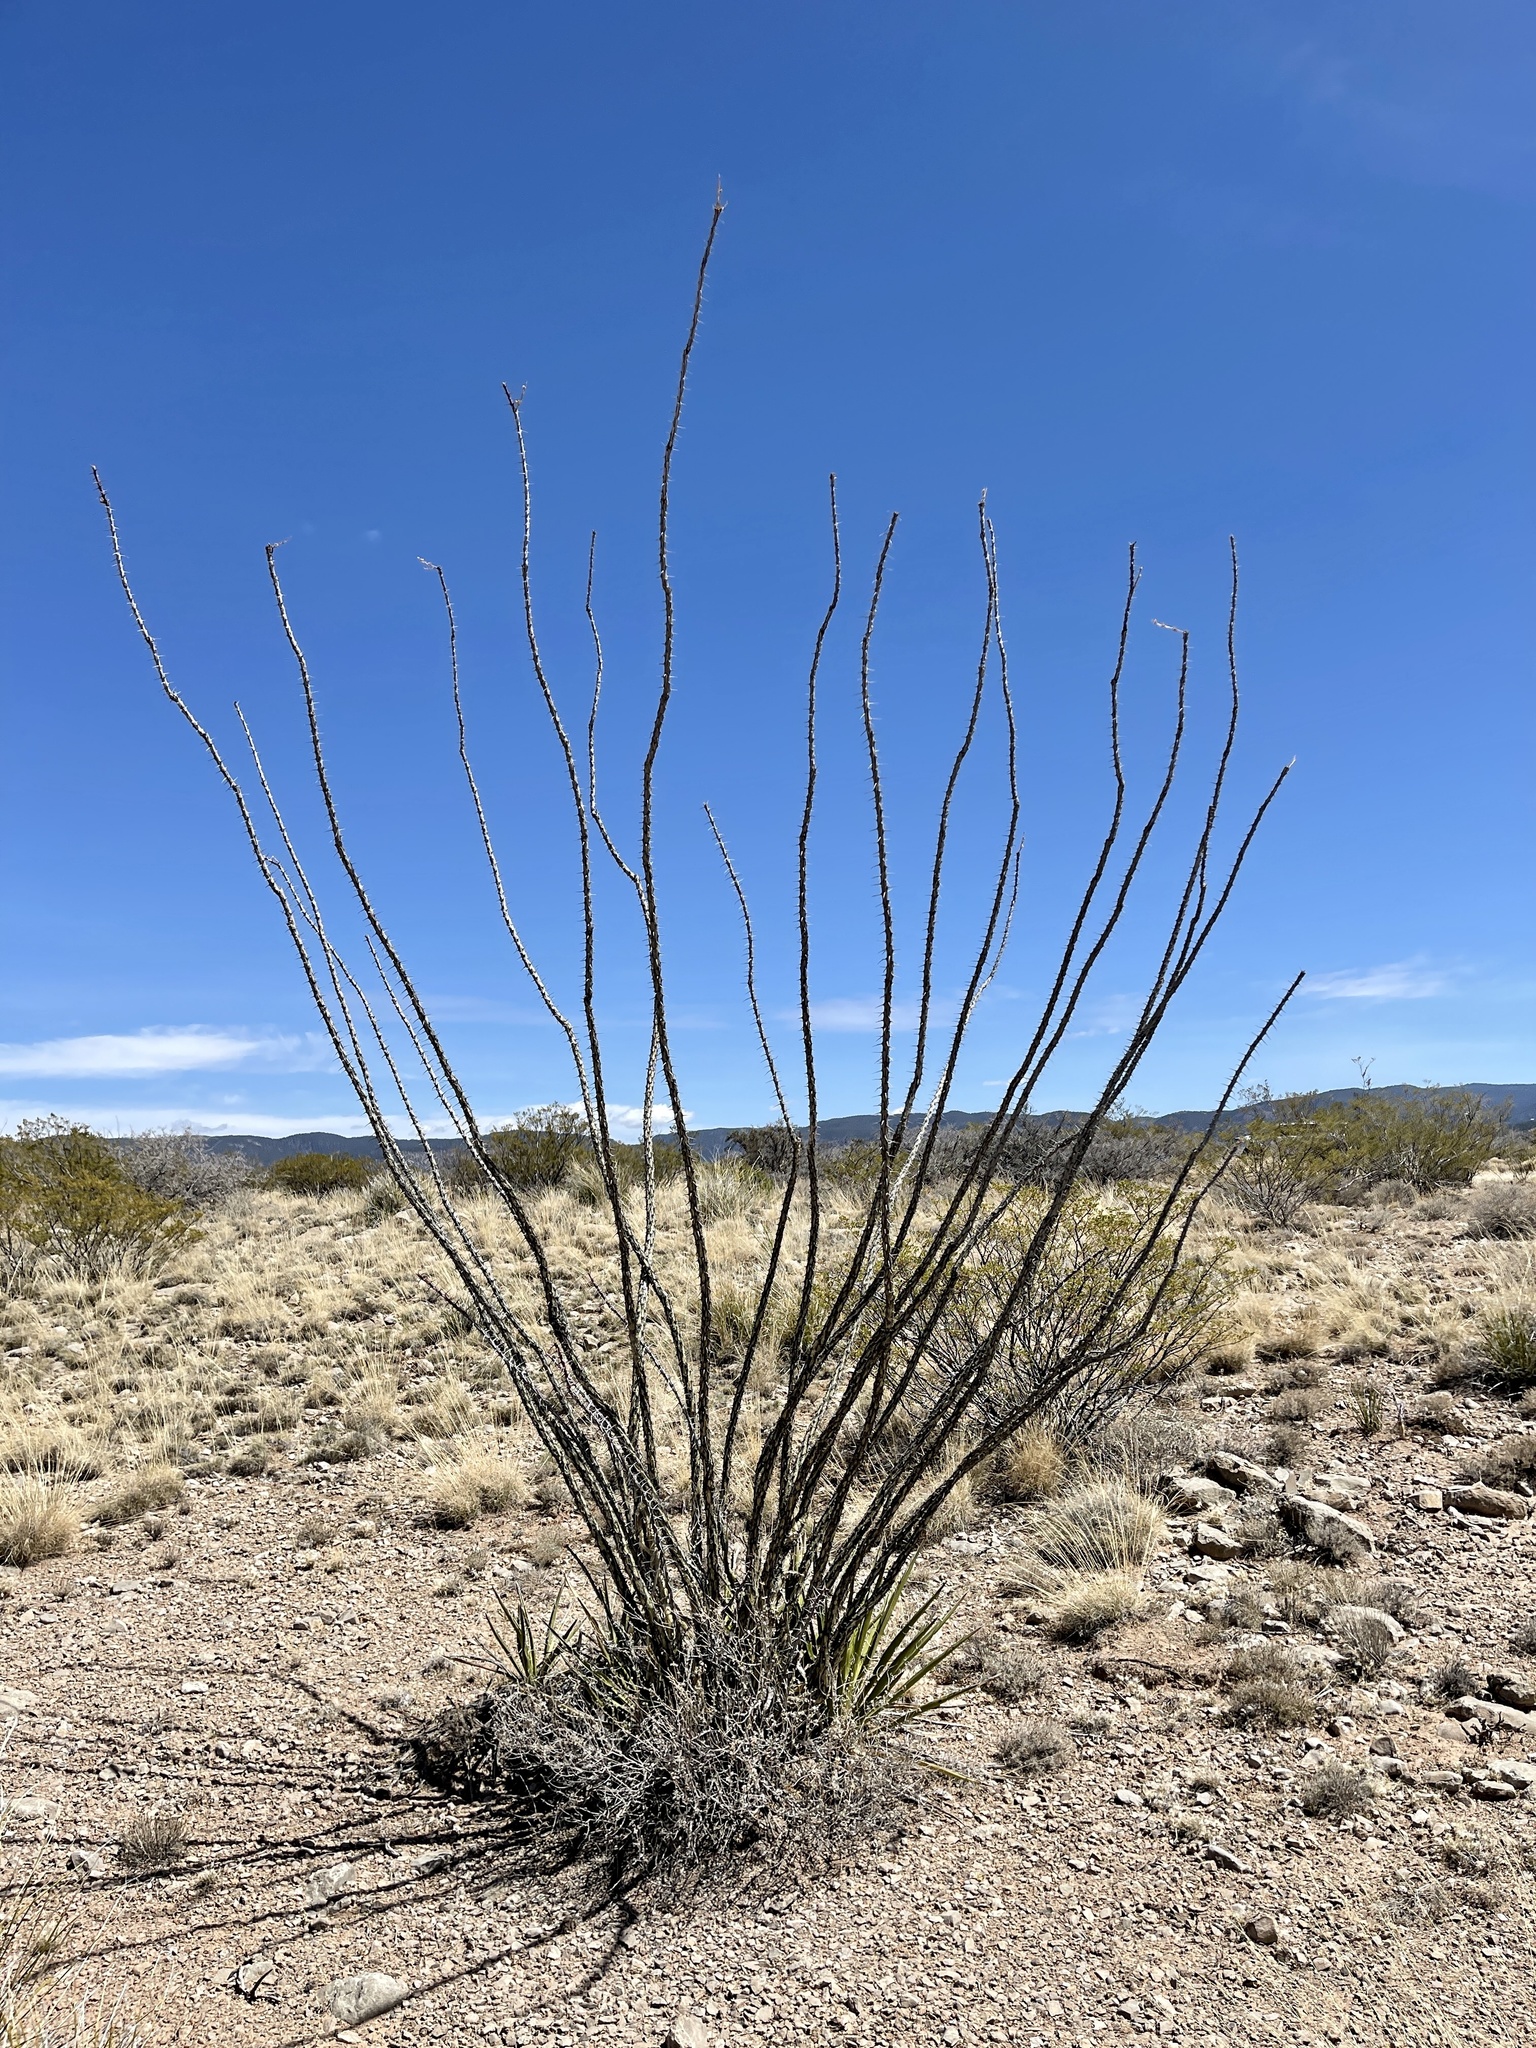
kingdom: Plantae
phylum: Tracheophyta
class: Magnoliopsida
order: Ericales
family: Fouquieriaceae
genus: Fouquieria
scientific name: Fouquieria splendens
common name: Vine-cactus
